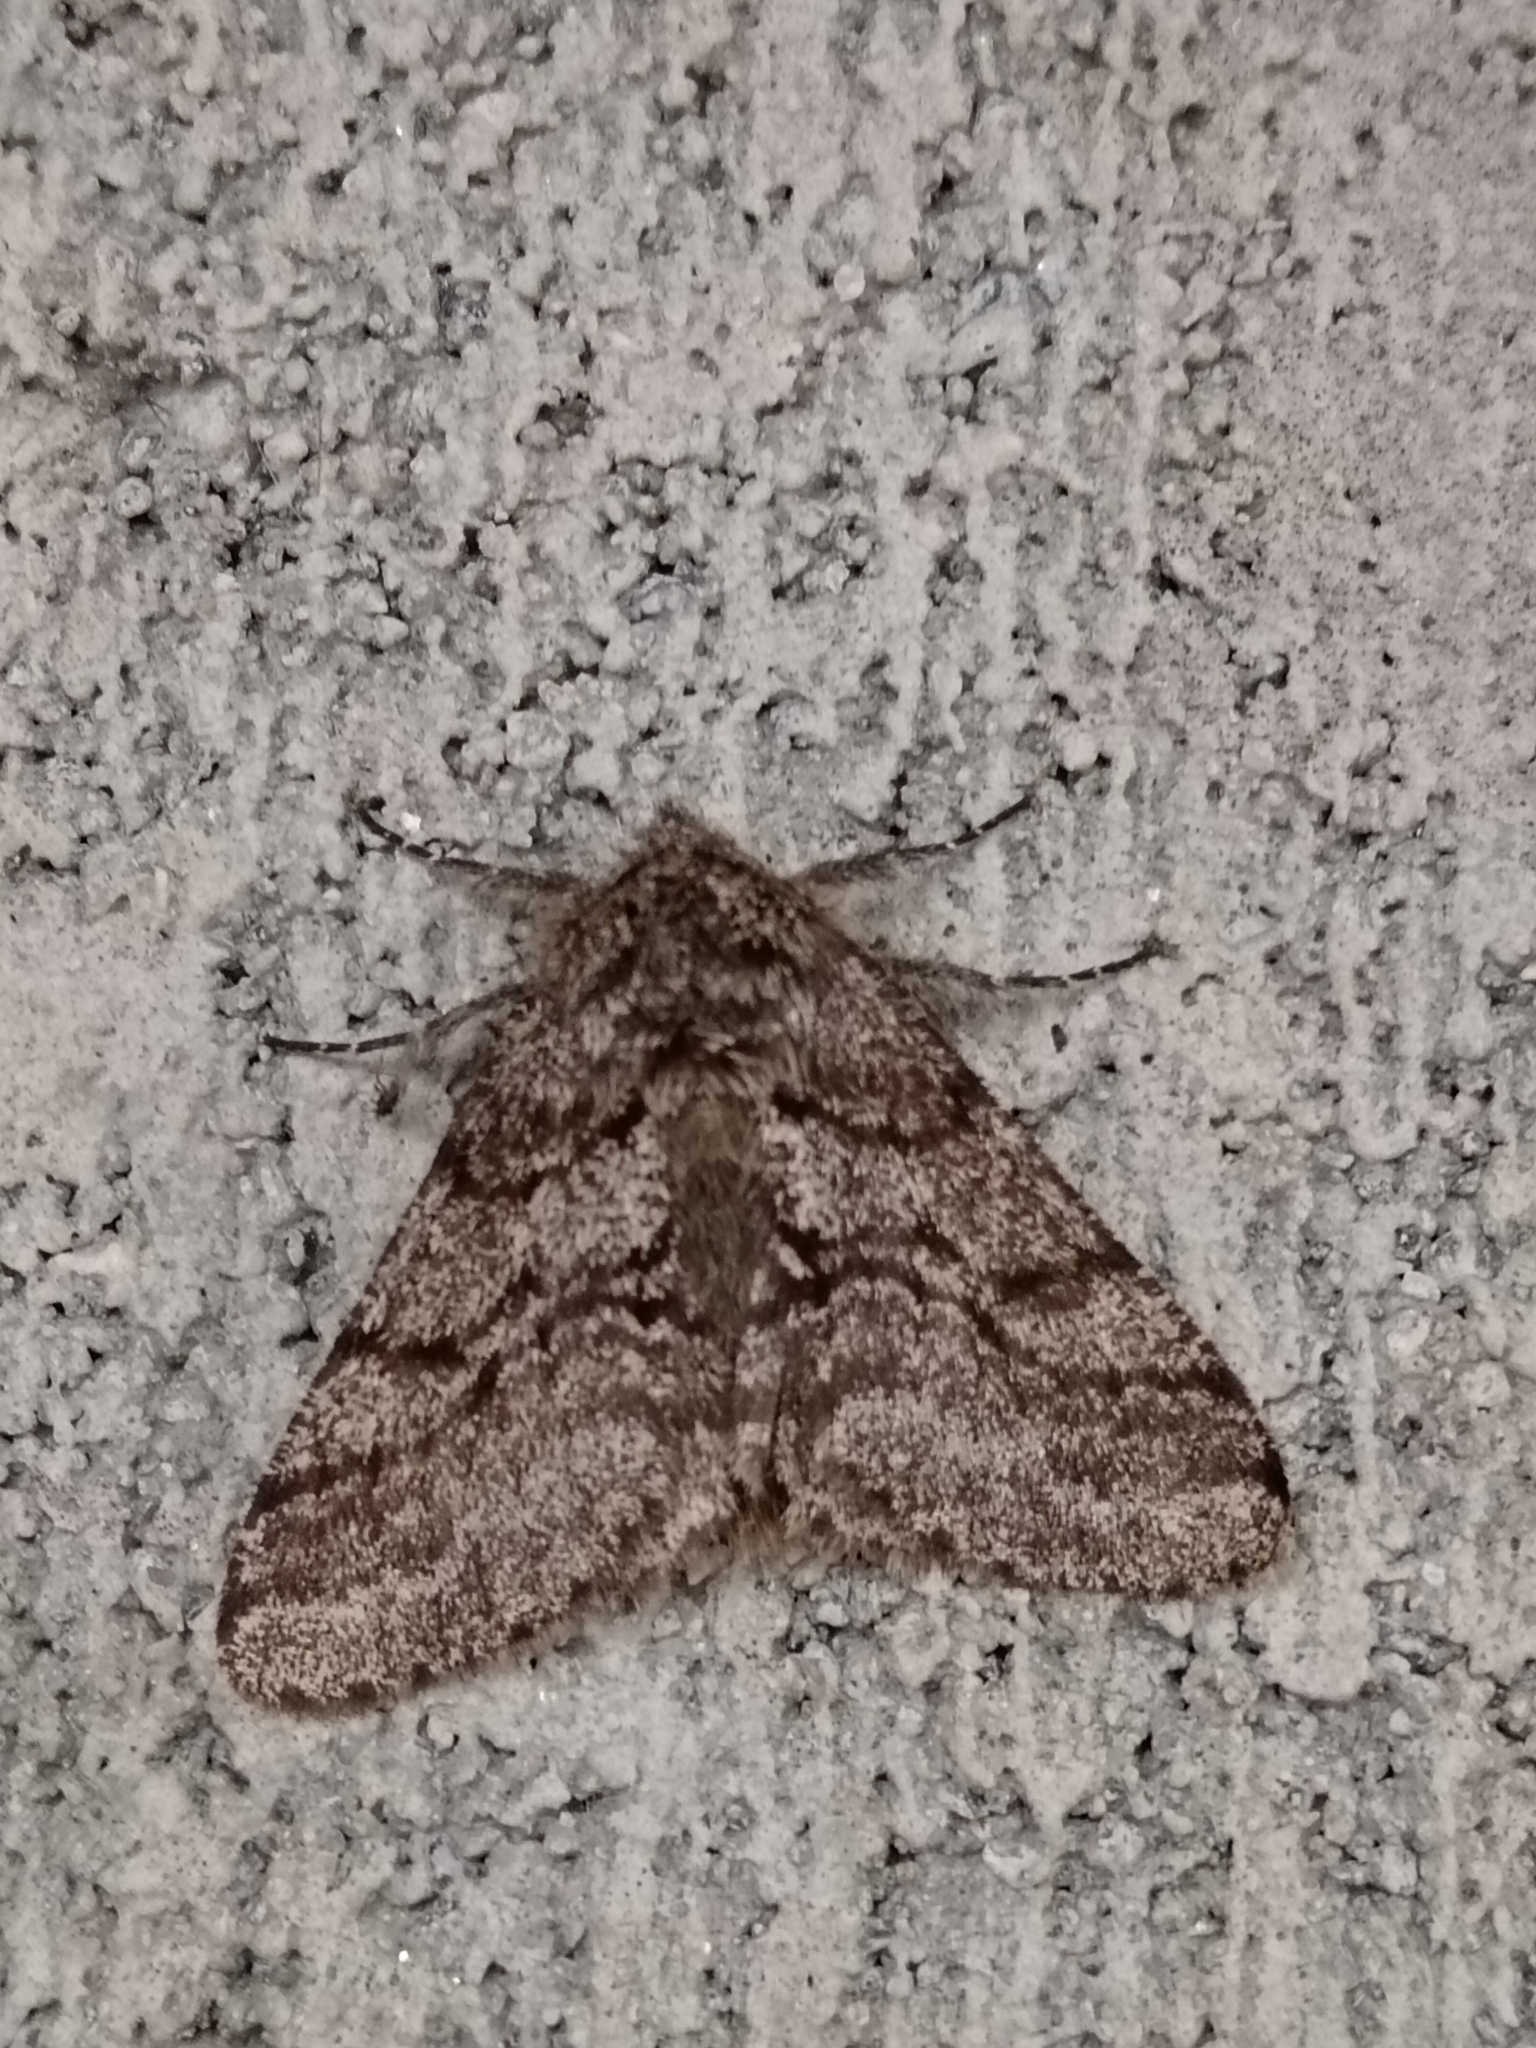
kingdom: Animalia
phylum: Arthropoda
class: Insecta
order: Lepidoptera
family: Geometridae
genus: Lycia
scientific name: Lycia hirtaria
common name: Brindled beauty
